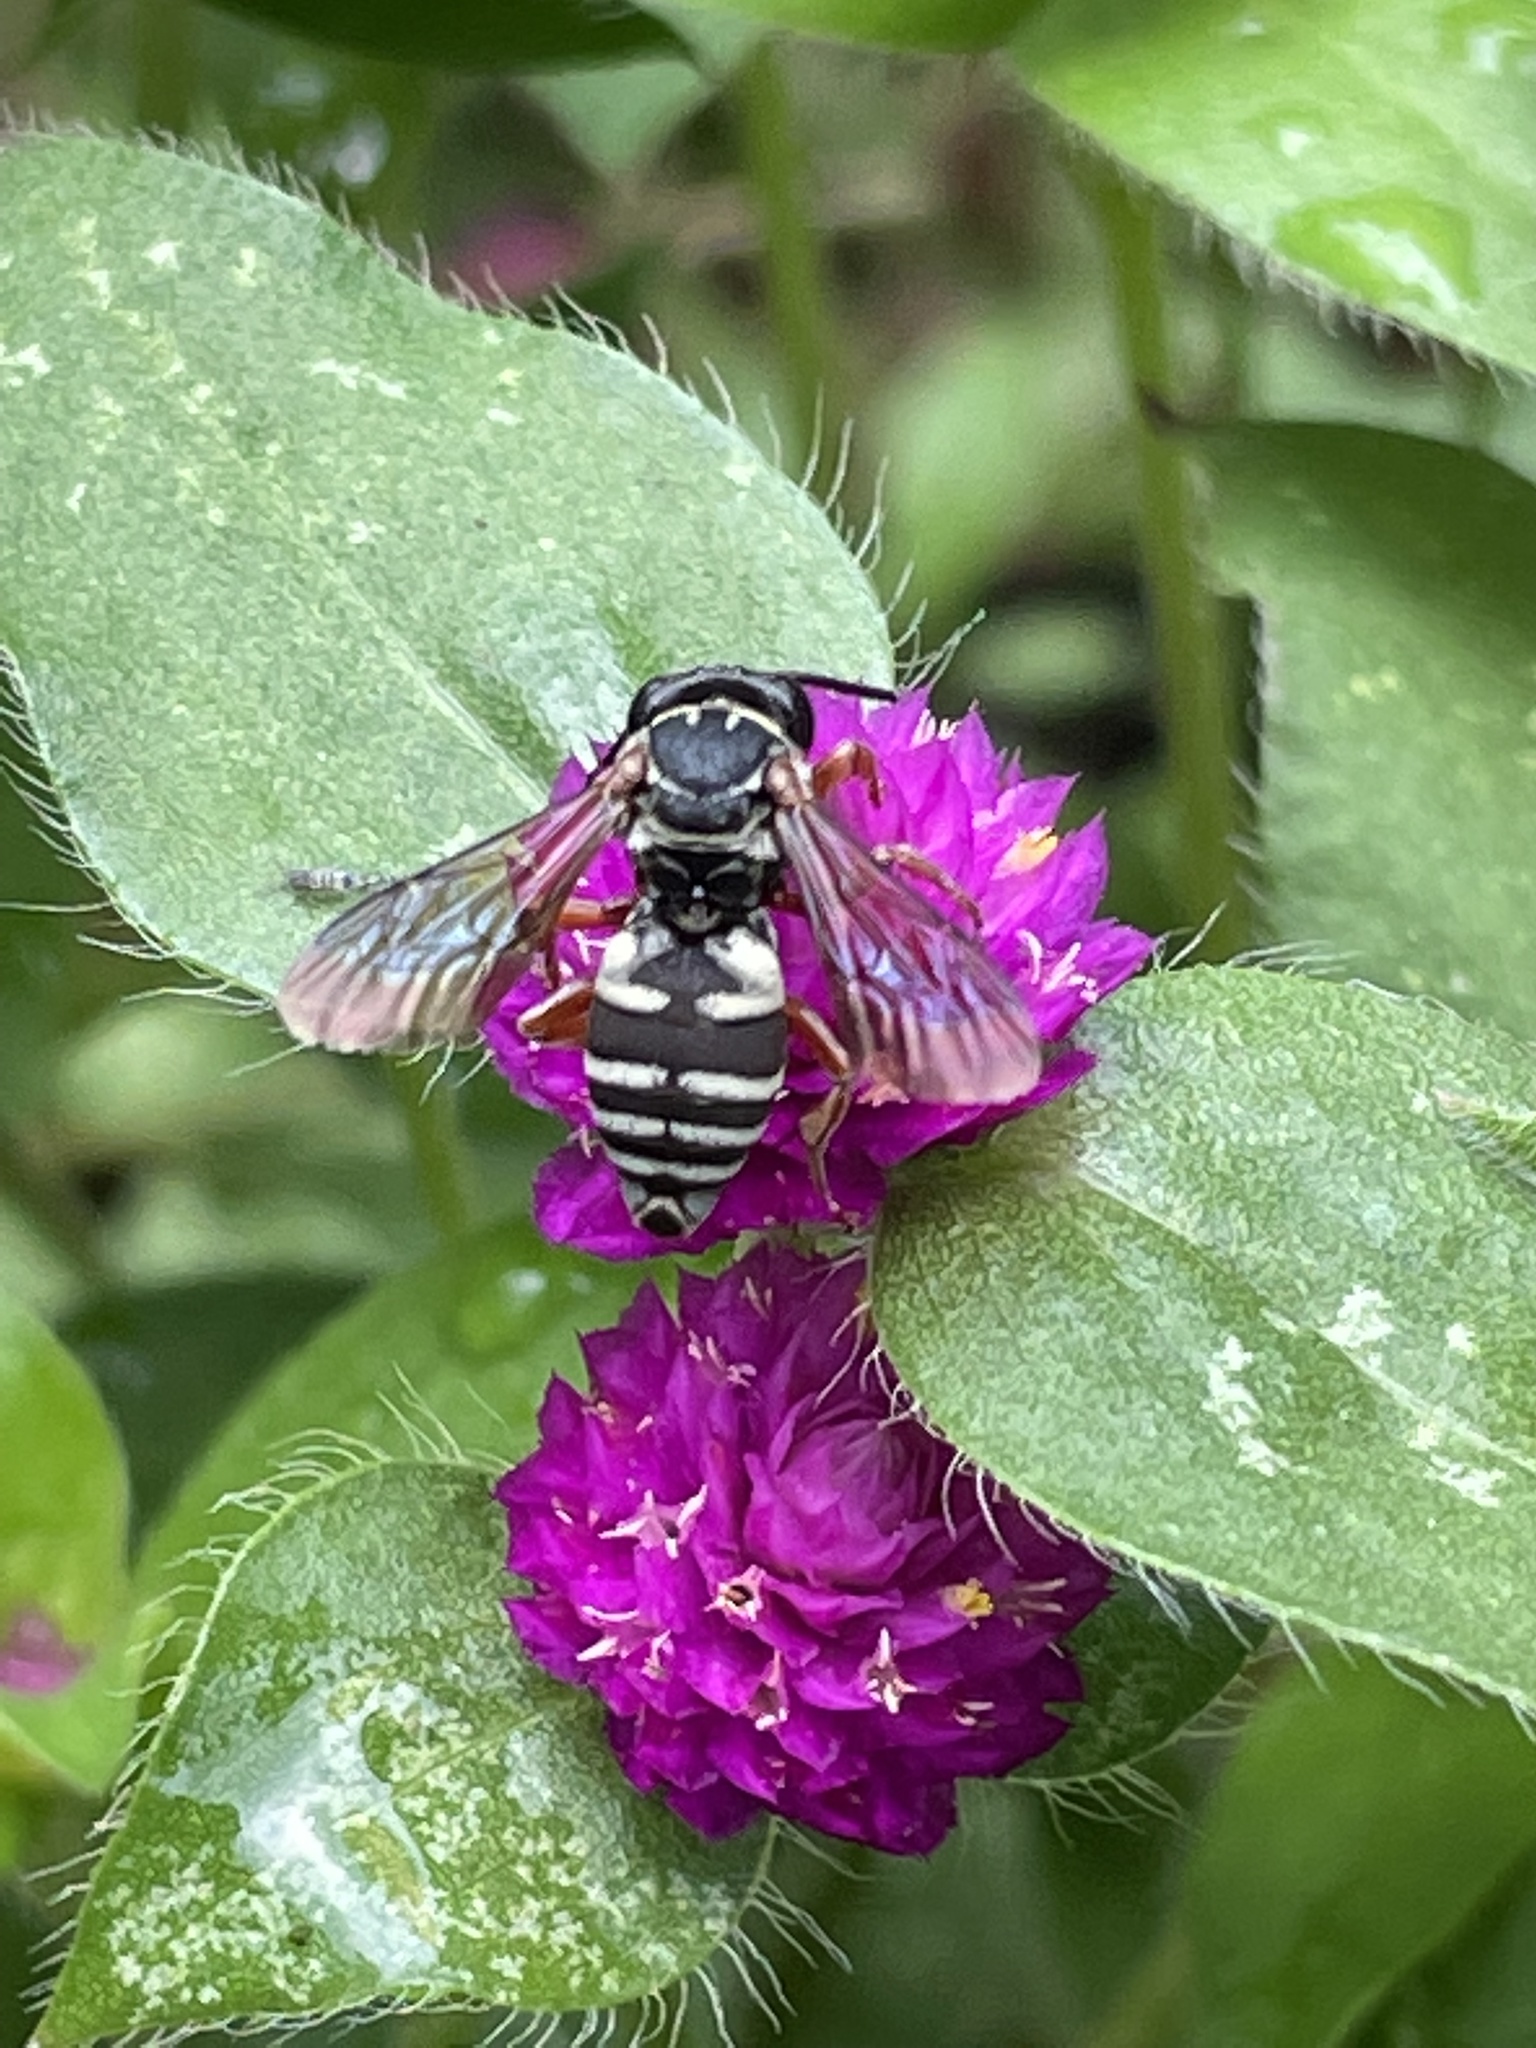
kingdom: Animalia
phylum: Arthropoda
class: Insecta
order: Hymenoptera
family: Apidae
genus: Triepeolus
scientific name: Triepeolus lunatus
